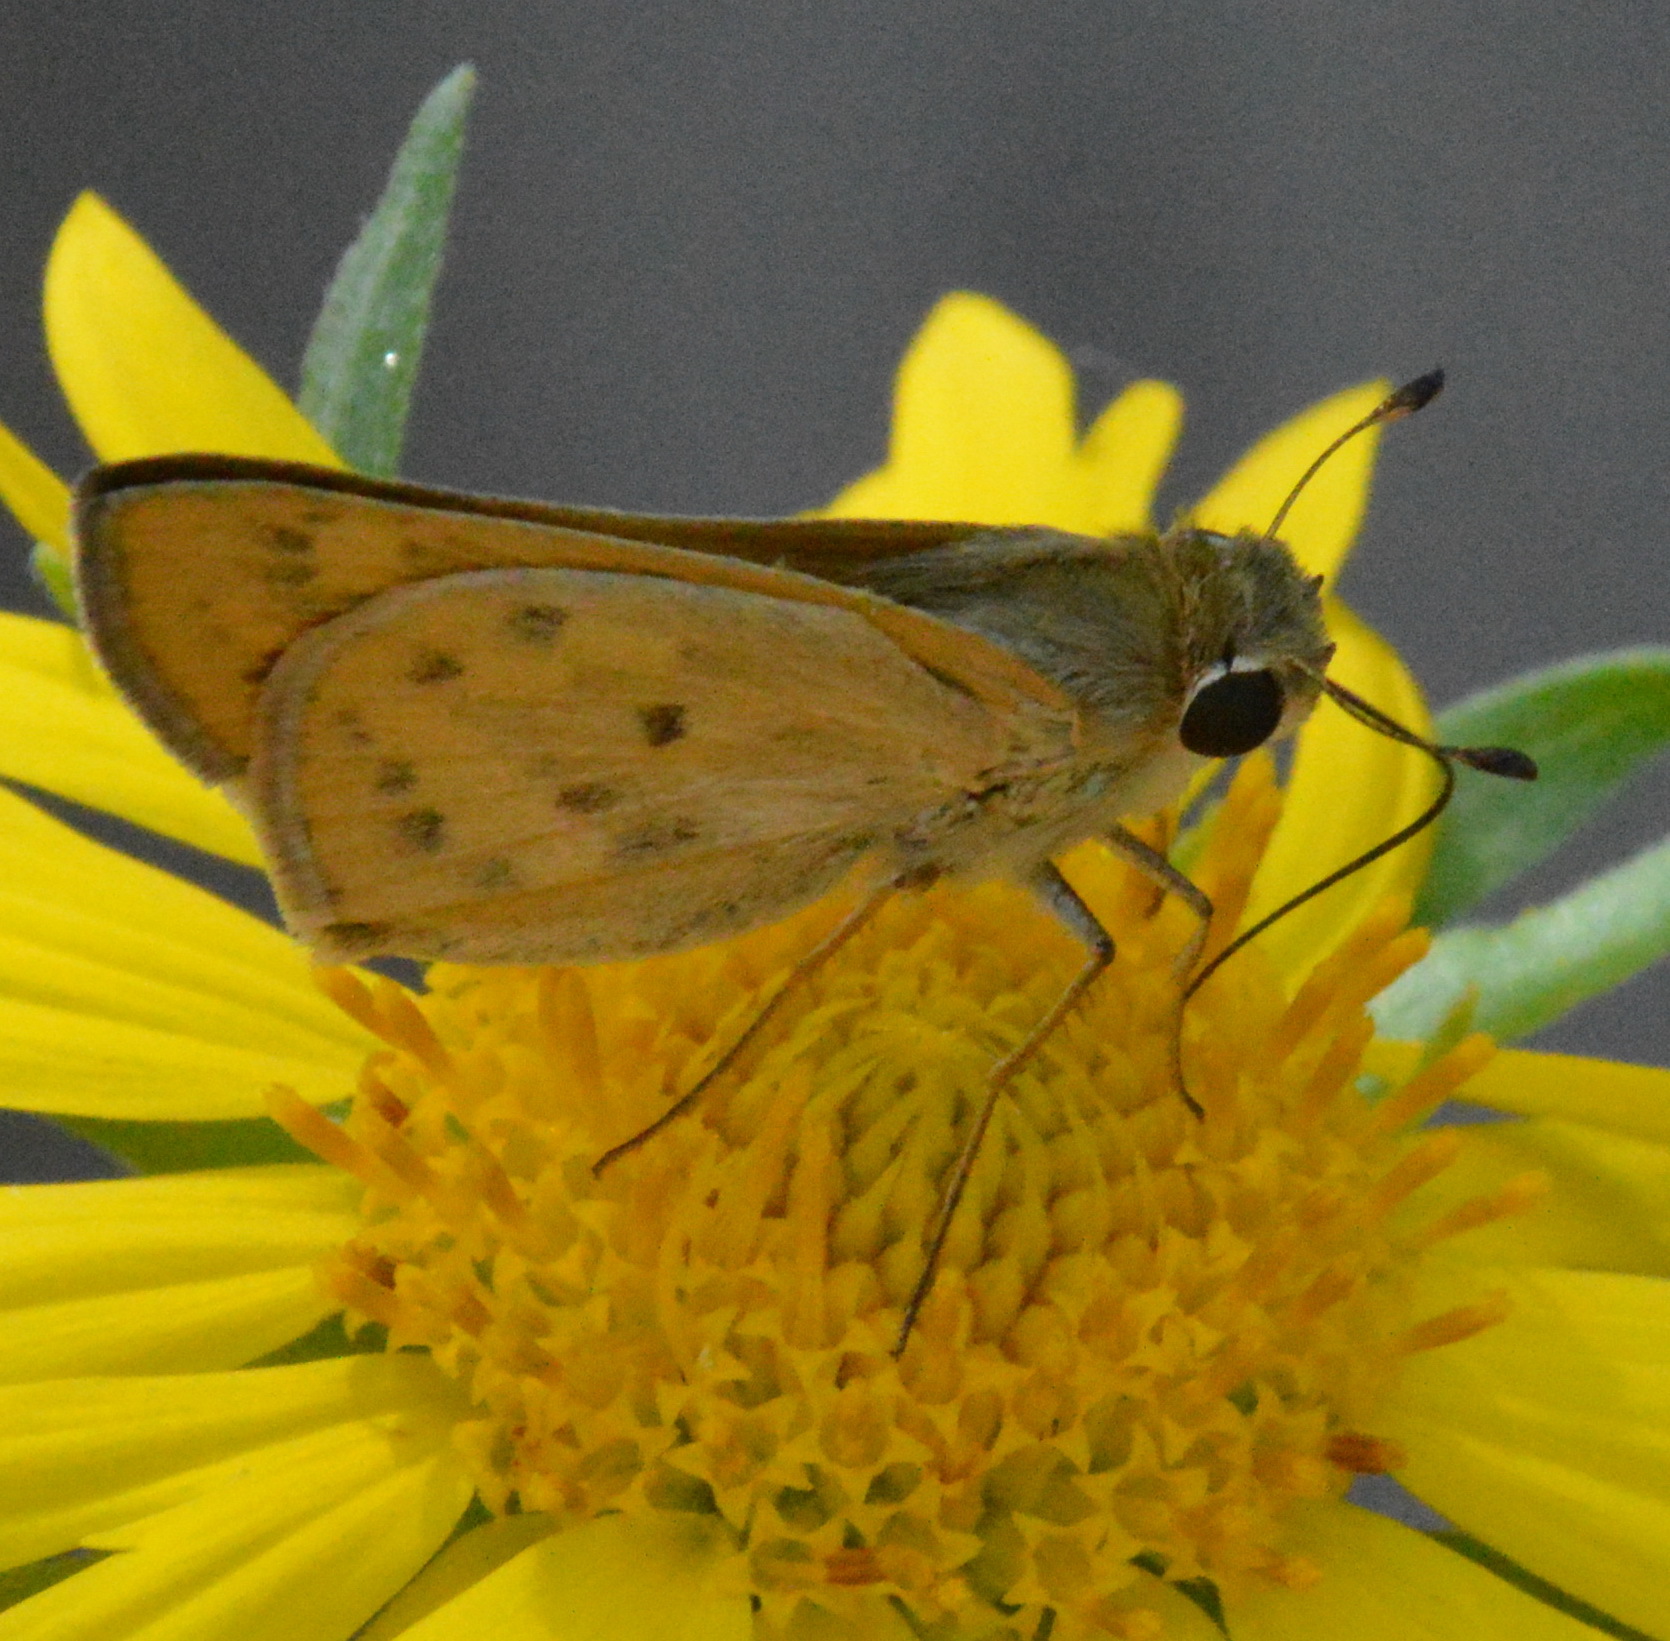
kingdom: Animalia
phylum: Arthropoda
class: Insecta
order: Lepidoptera
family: Hesperiidae
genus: Hylephila
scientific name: Hylephila phyleus
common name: Fiery skipper
